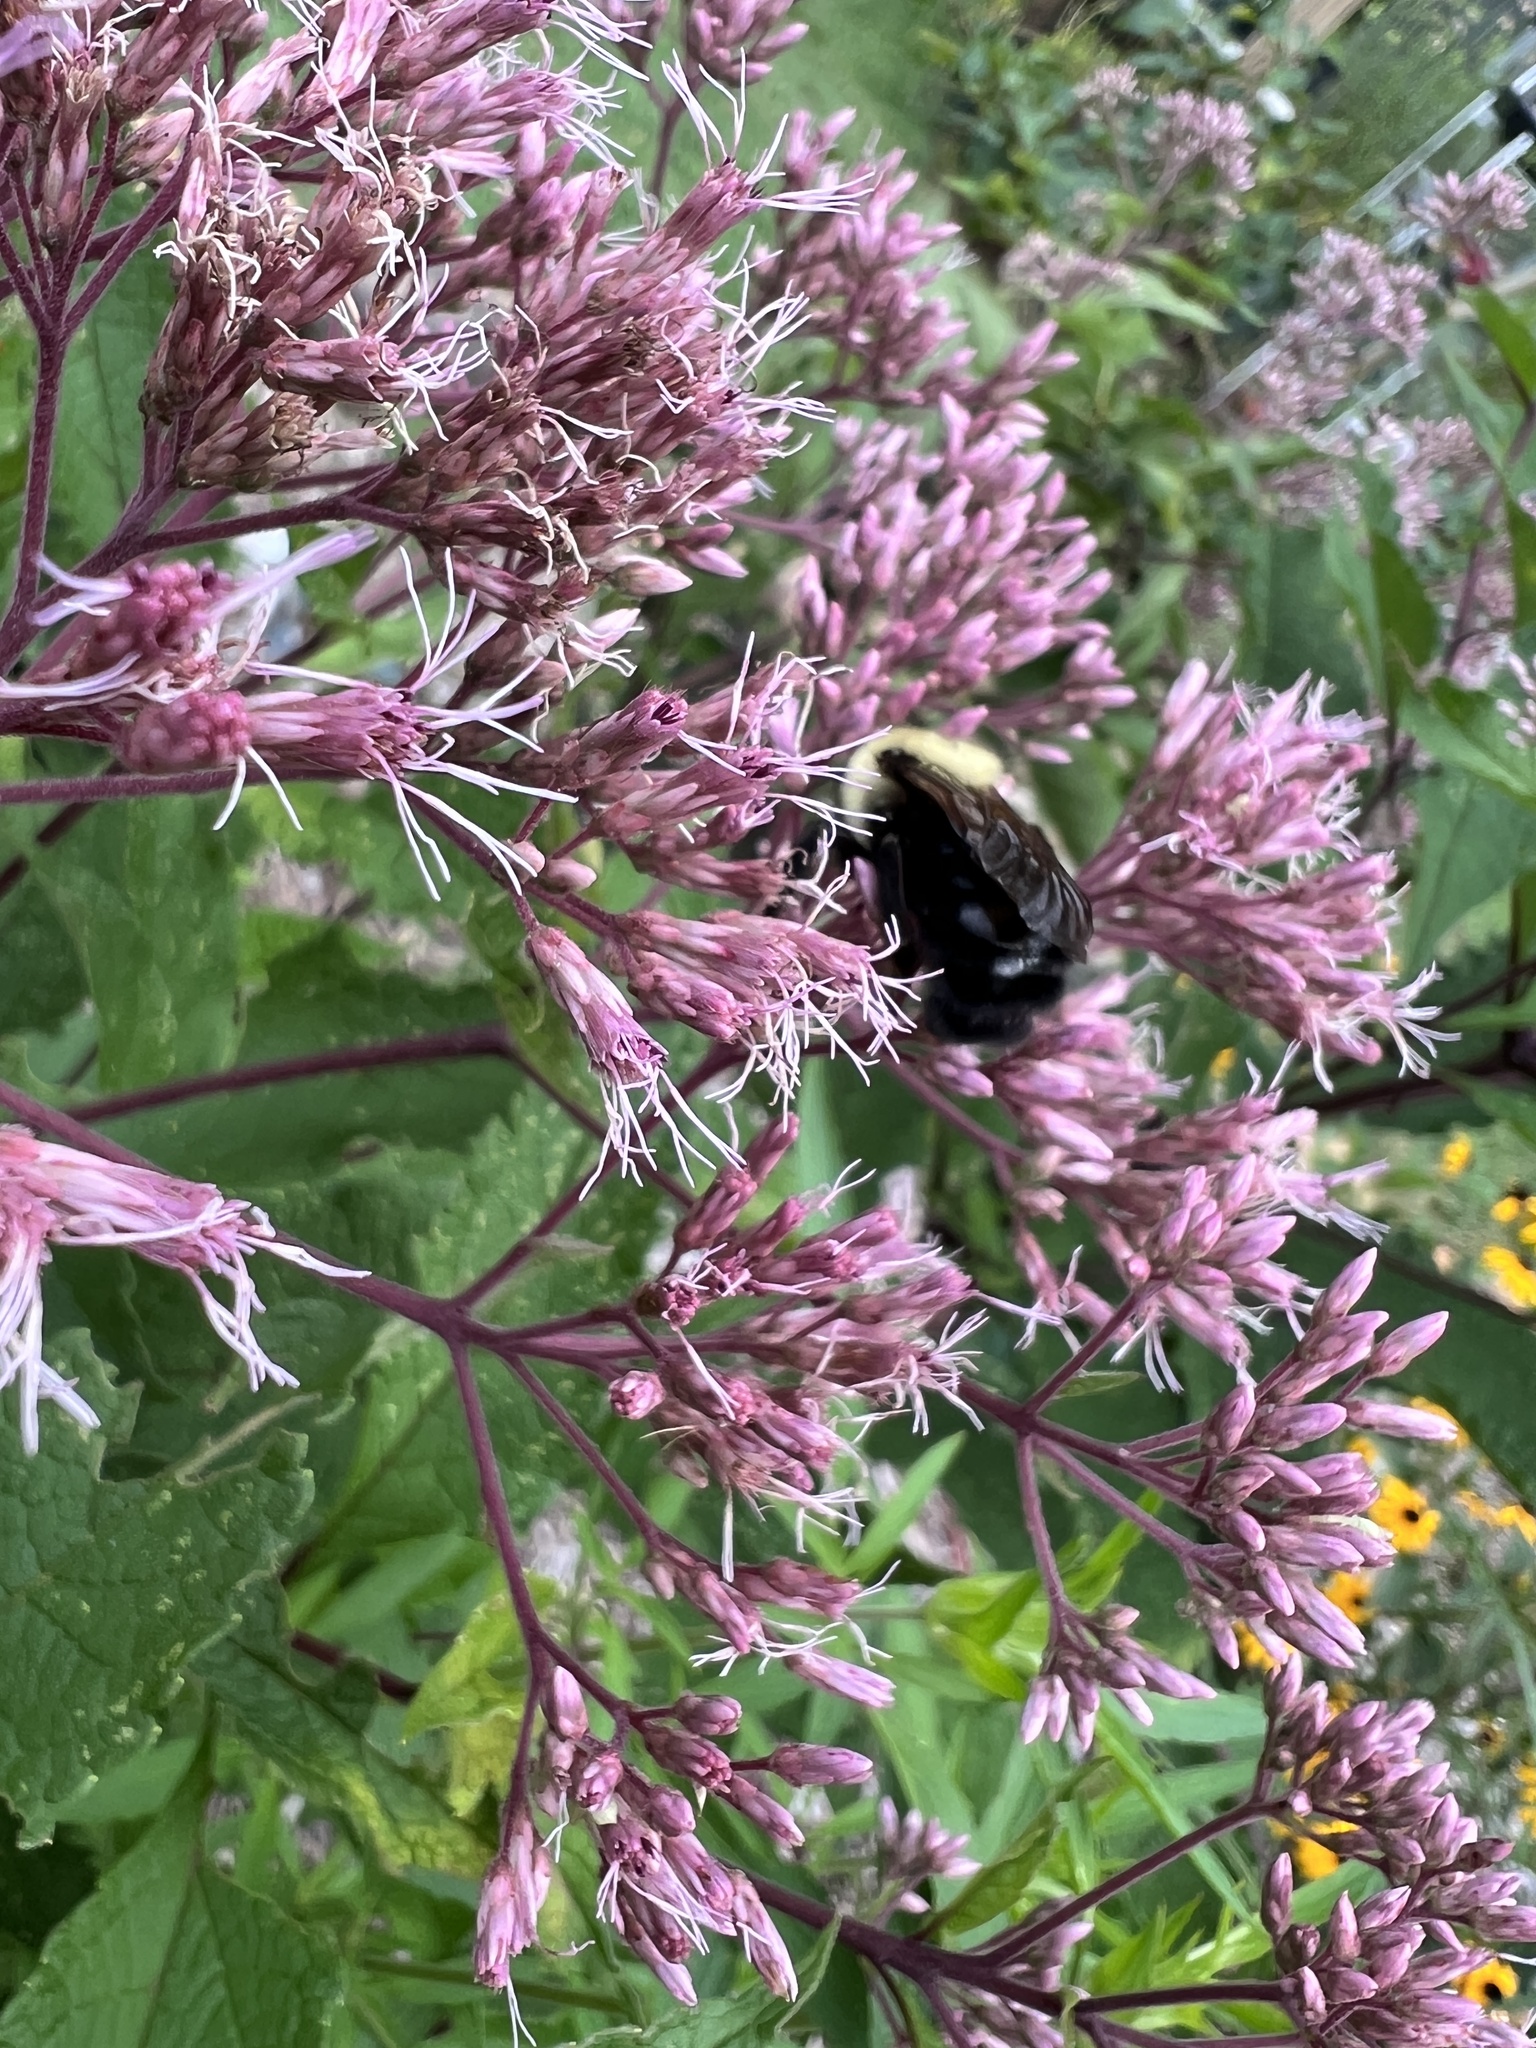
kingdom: Animalia
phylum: Arthropoda
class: Insecta
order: Hymenoptera
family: Apidae
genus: Bombus
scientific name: Bombus citrinus
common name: Lemon cuckoo bumble bee
